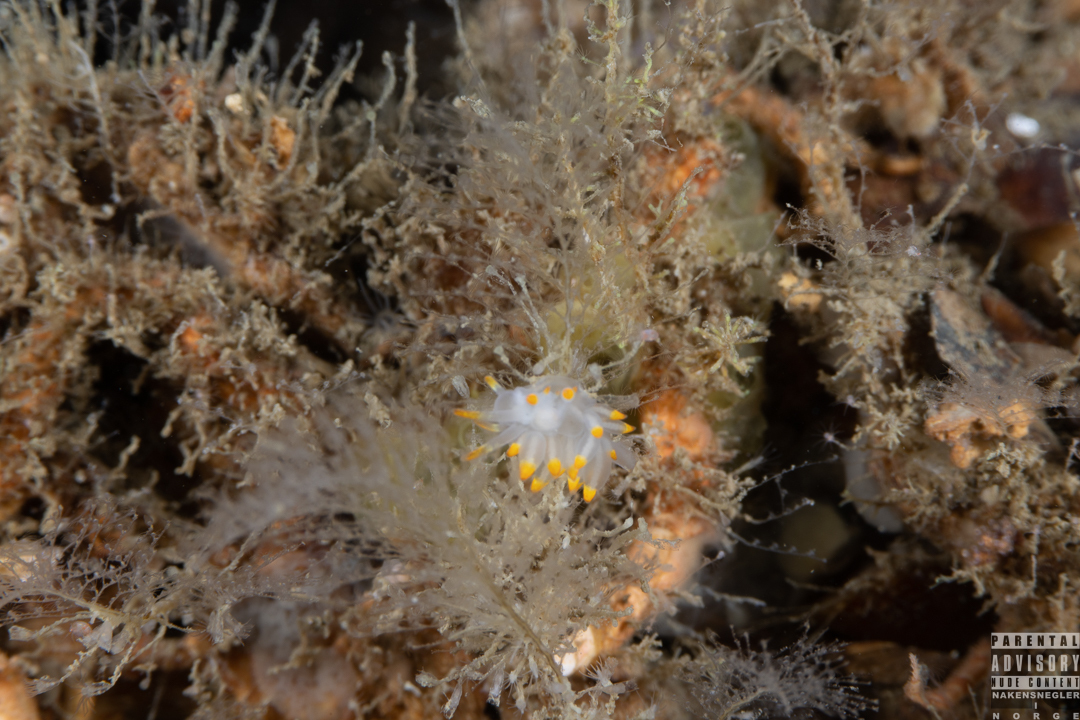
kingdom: Animalia
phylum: Mollusca
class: Gastropoda
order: Nudibranchia
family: Eubranchidae
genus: Amphorina
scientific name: Amphorina farrani
